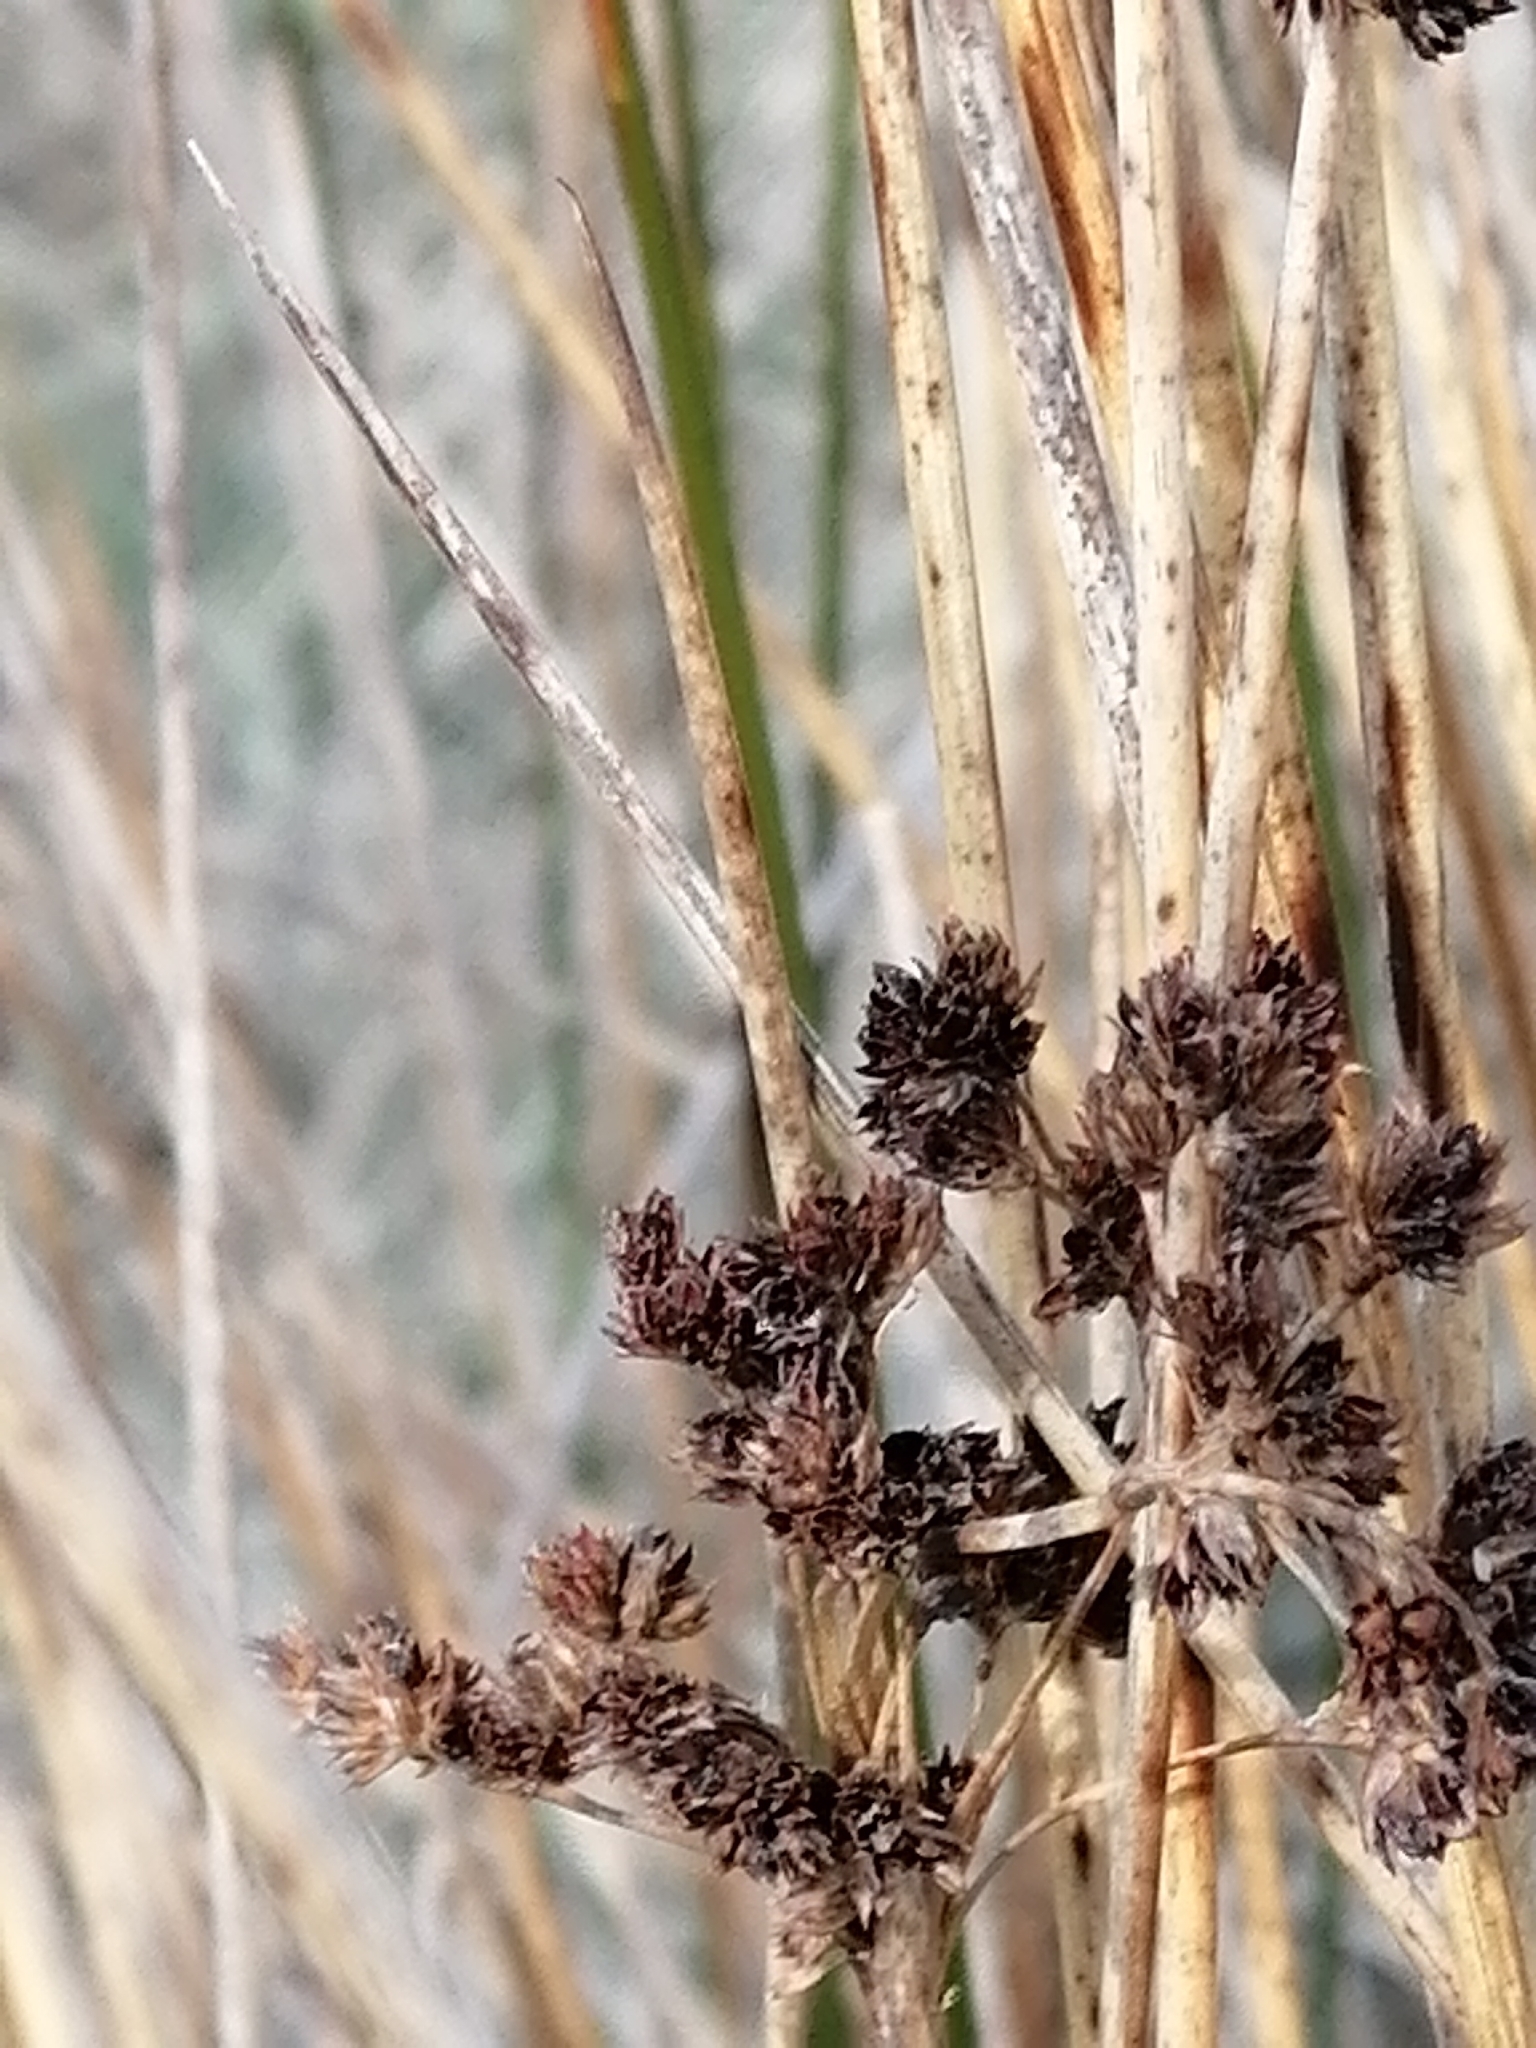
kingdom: Plantae
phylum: Tracheophyta
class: Liliopsida
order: Poales
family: Juncaceae
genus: Juncus
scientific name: Juncus kraussii
